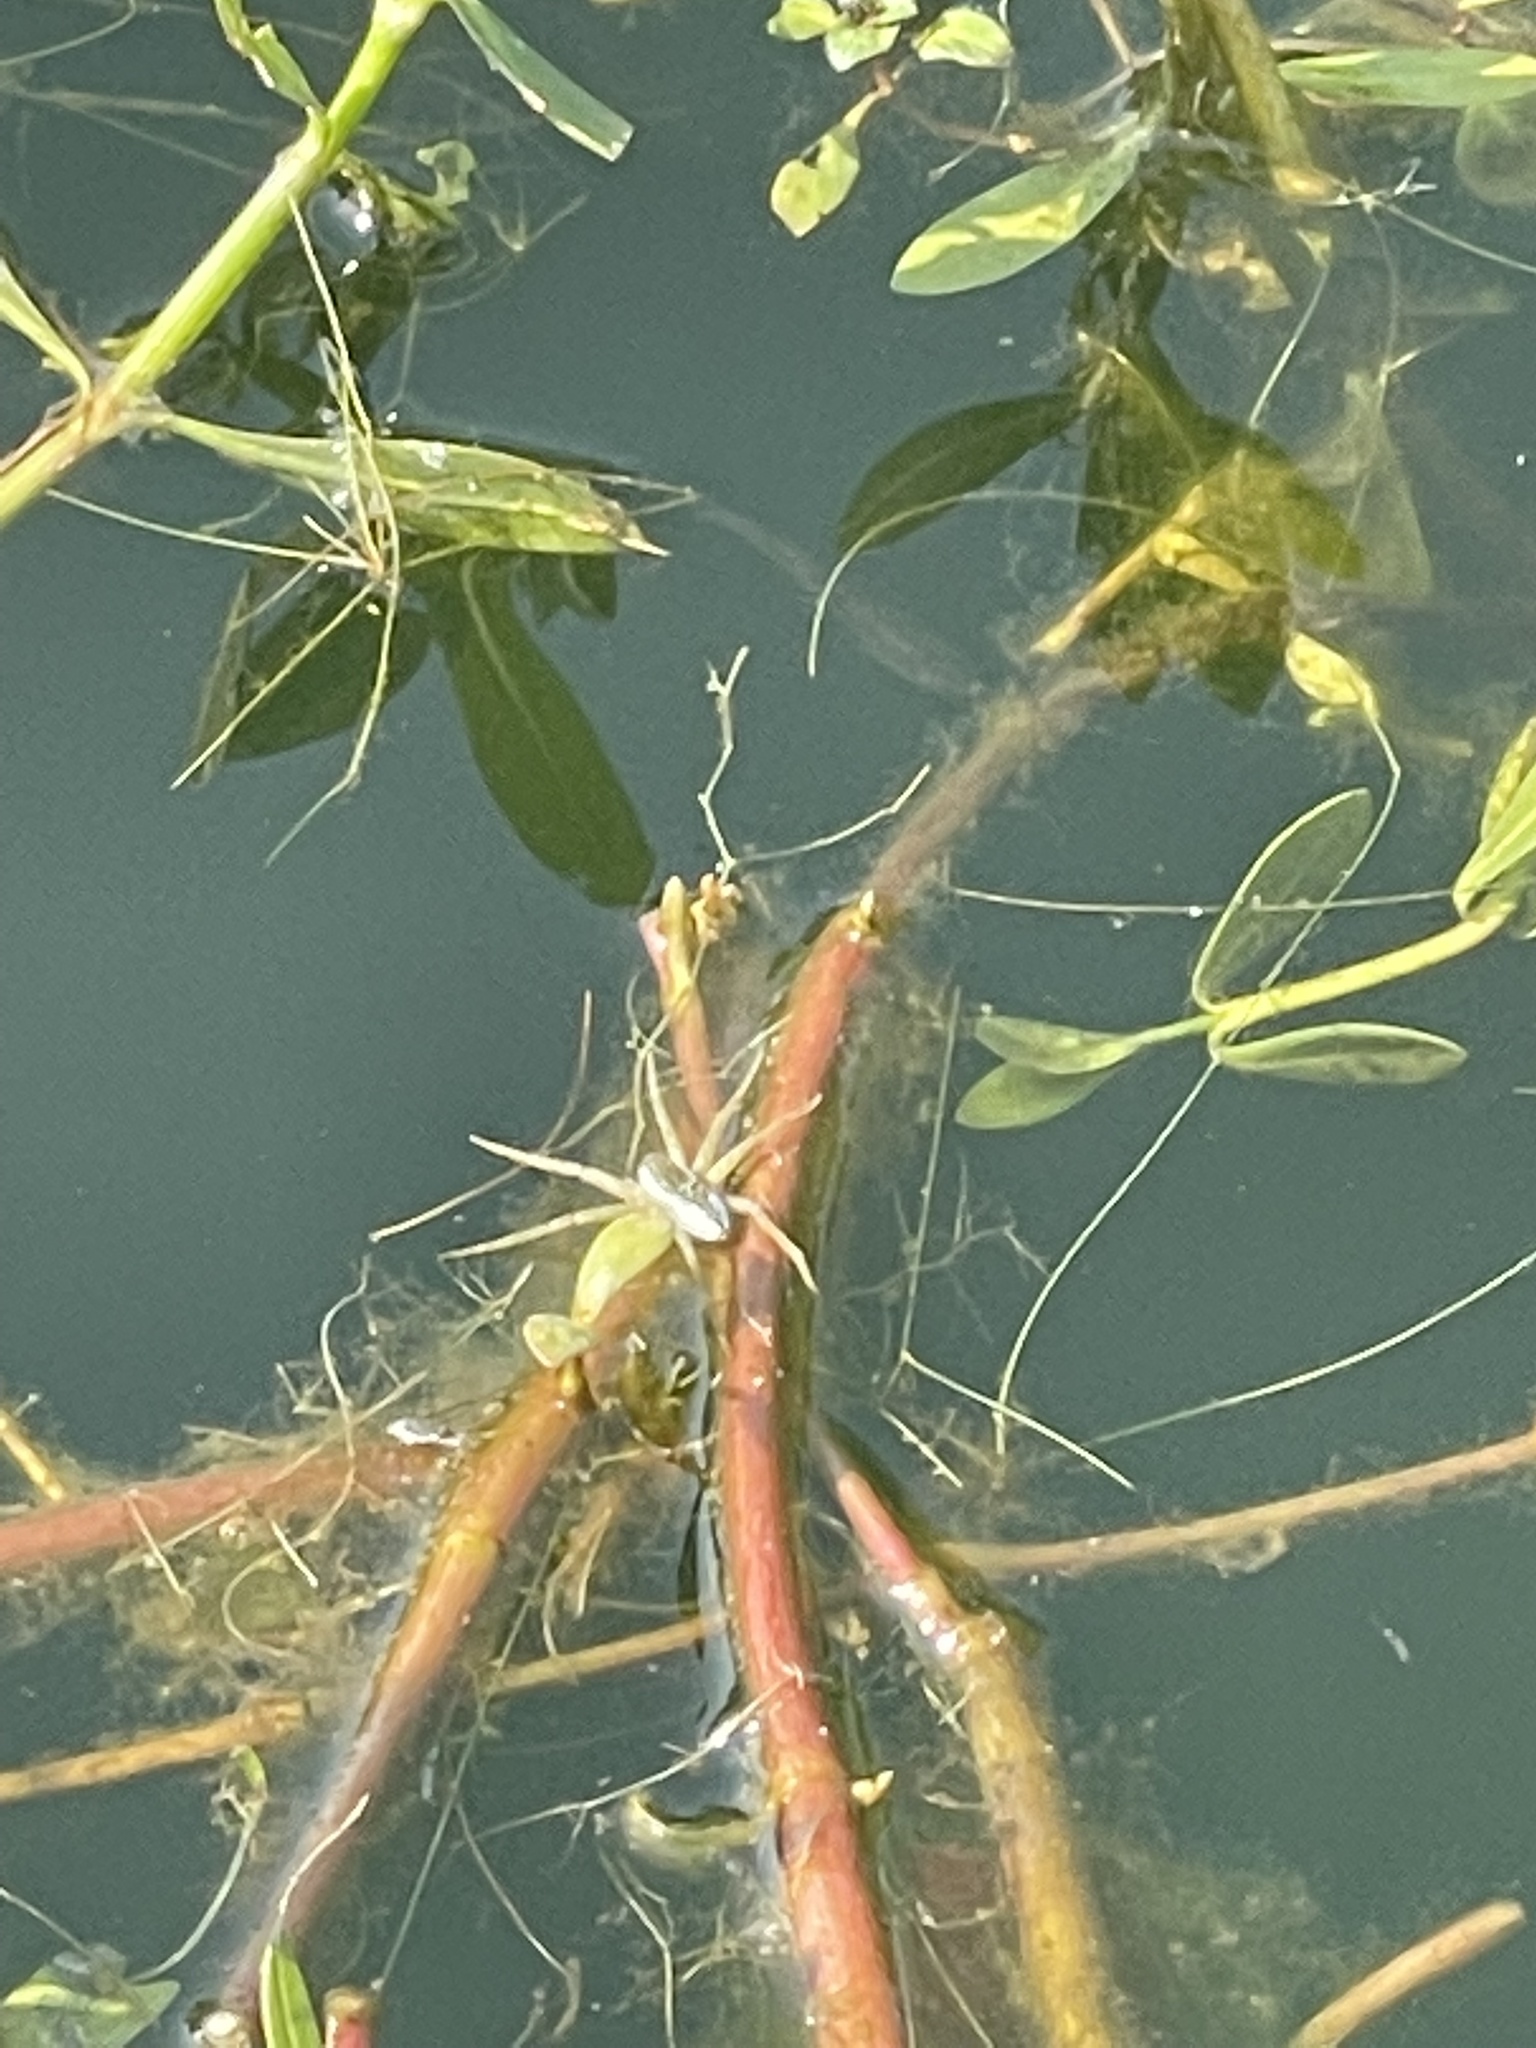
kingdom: Animalia
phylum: Arthropoda
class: Arachnida
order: Araneae
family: Pisauridae
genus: Dolomedes
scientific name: Dolomedes triton
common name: Six-spotted fishing spider
